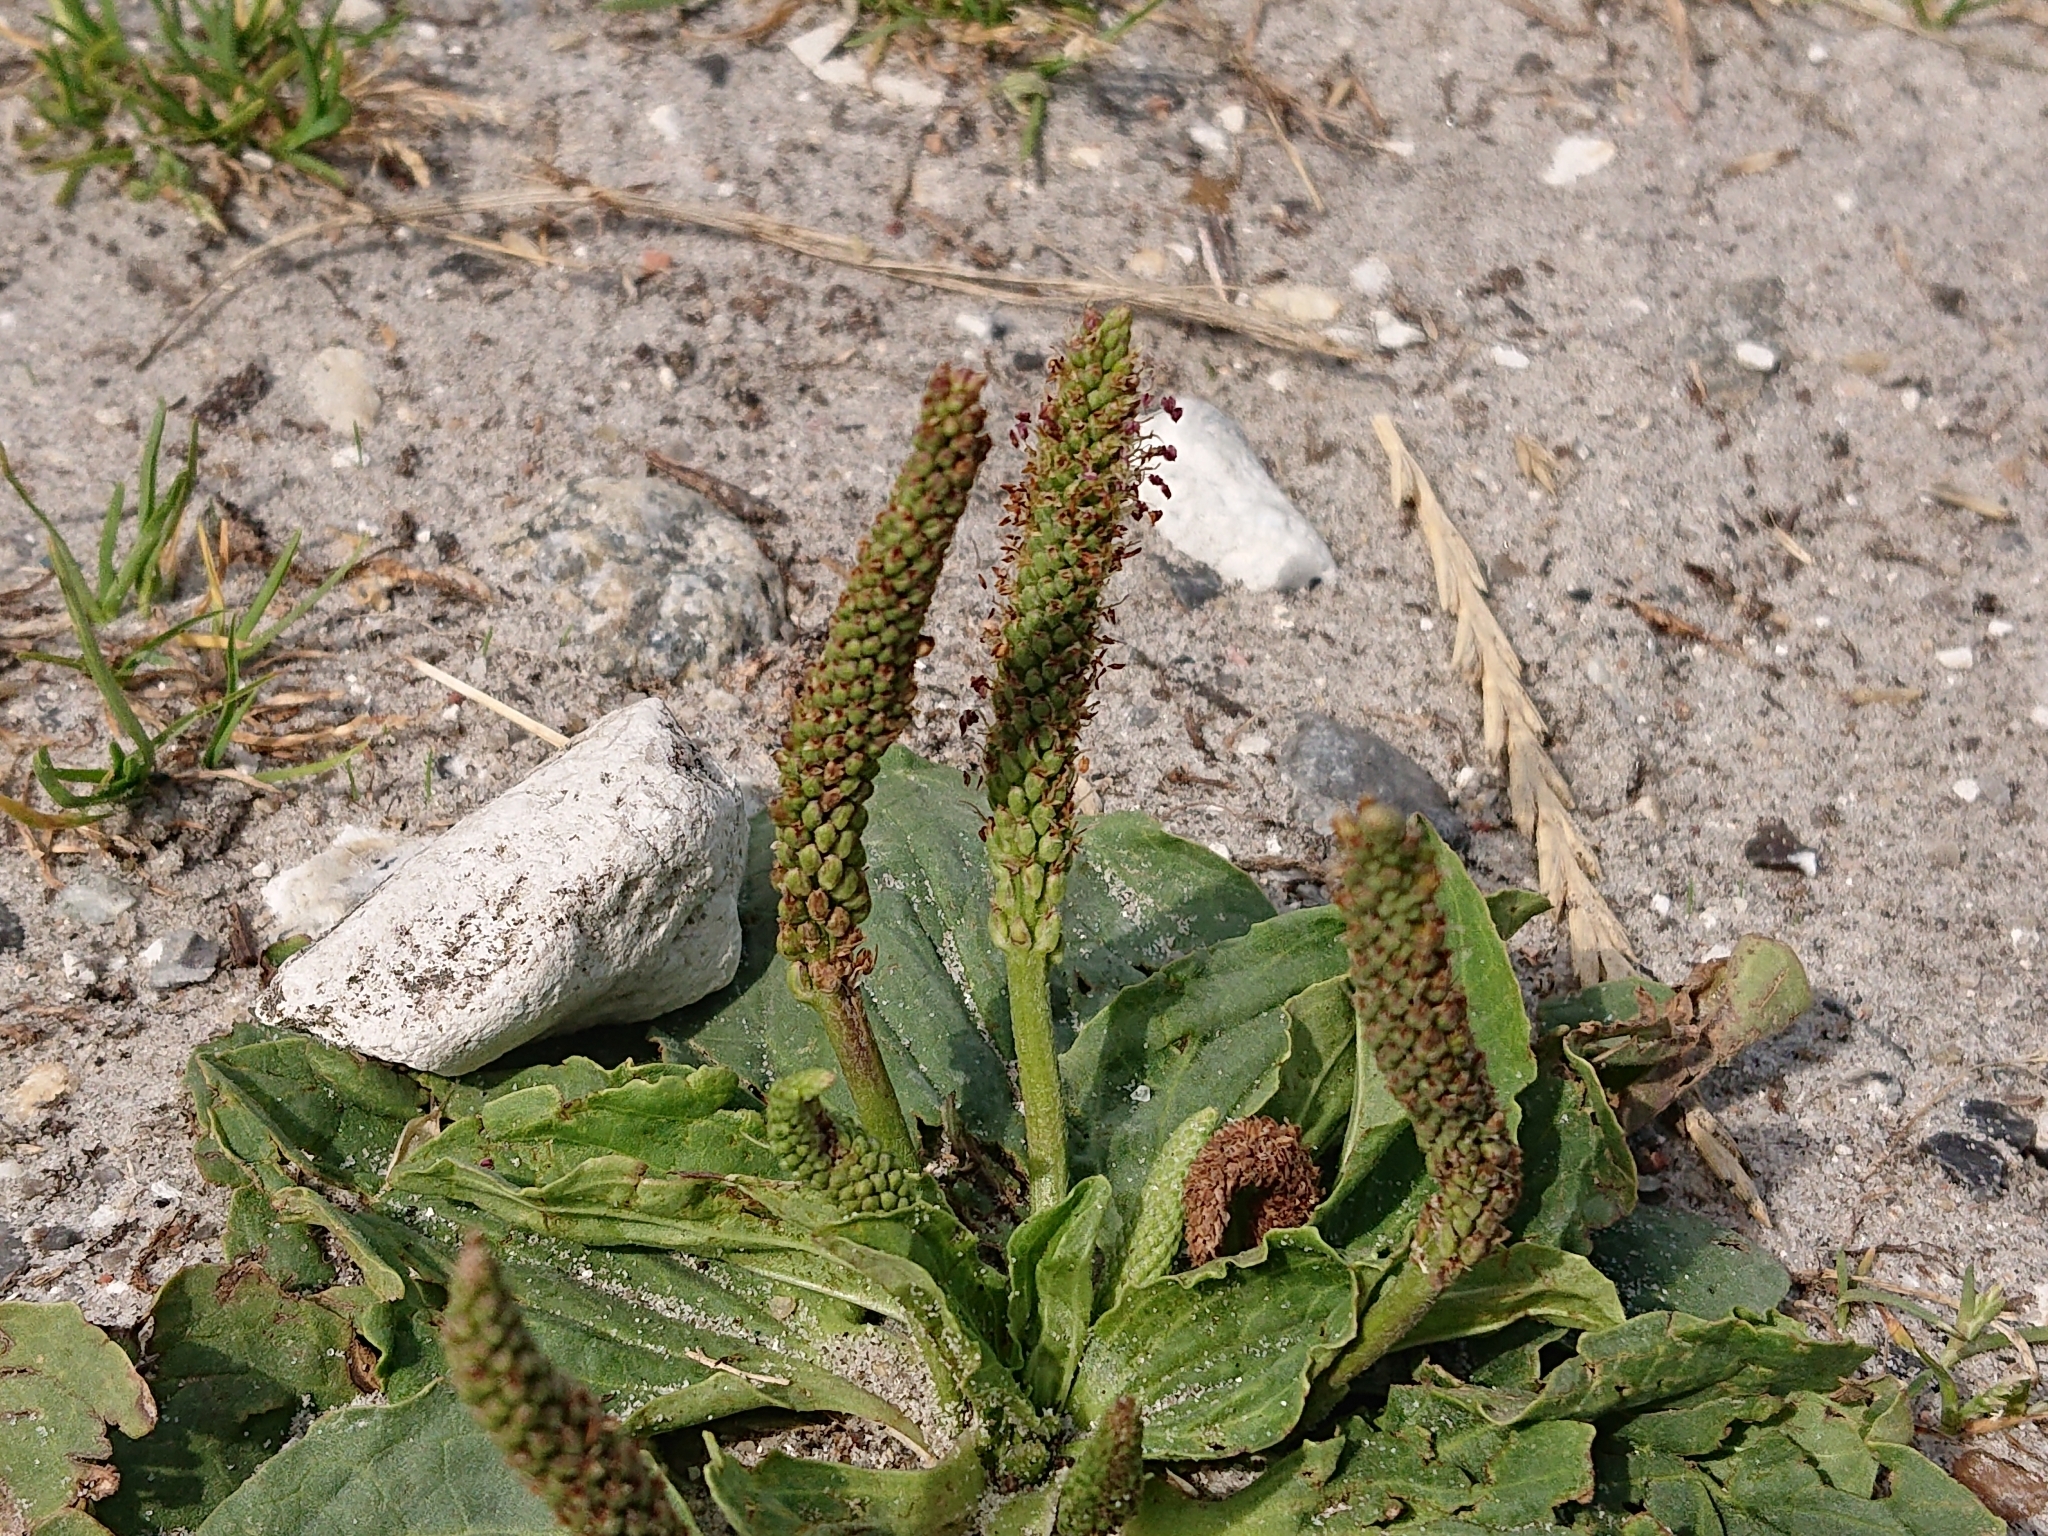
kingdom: Plantae
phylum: Tracheophyta
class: Magnoliopsida
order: Lamiales
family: Plantaginaceae
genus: Plantago
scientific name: Plantago major
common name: Common plantain
